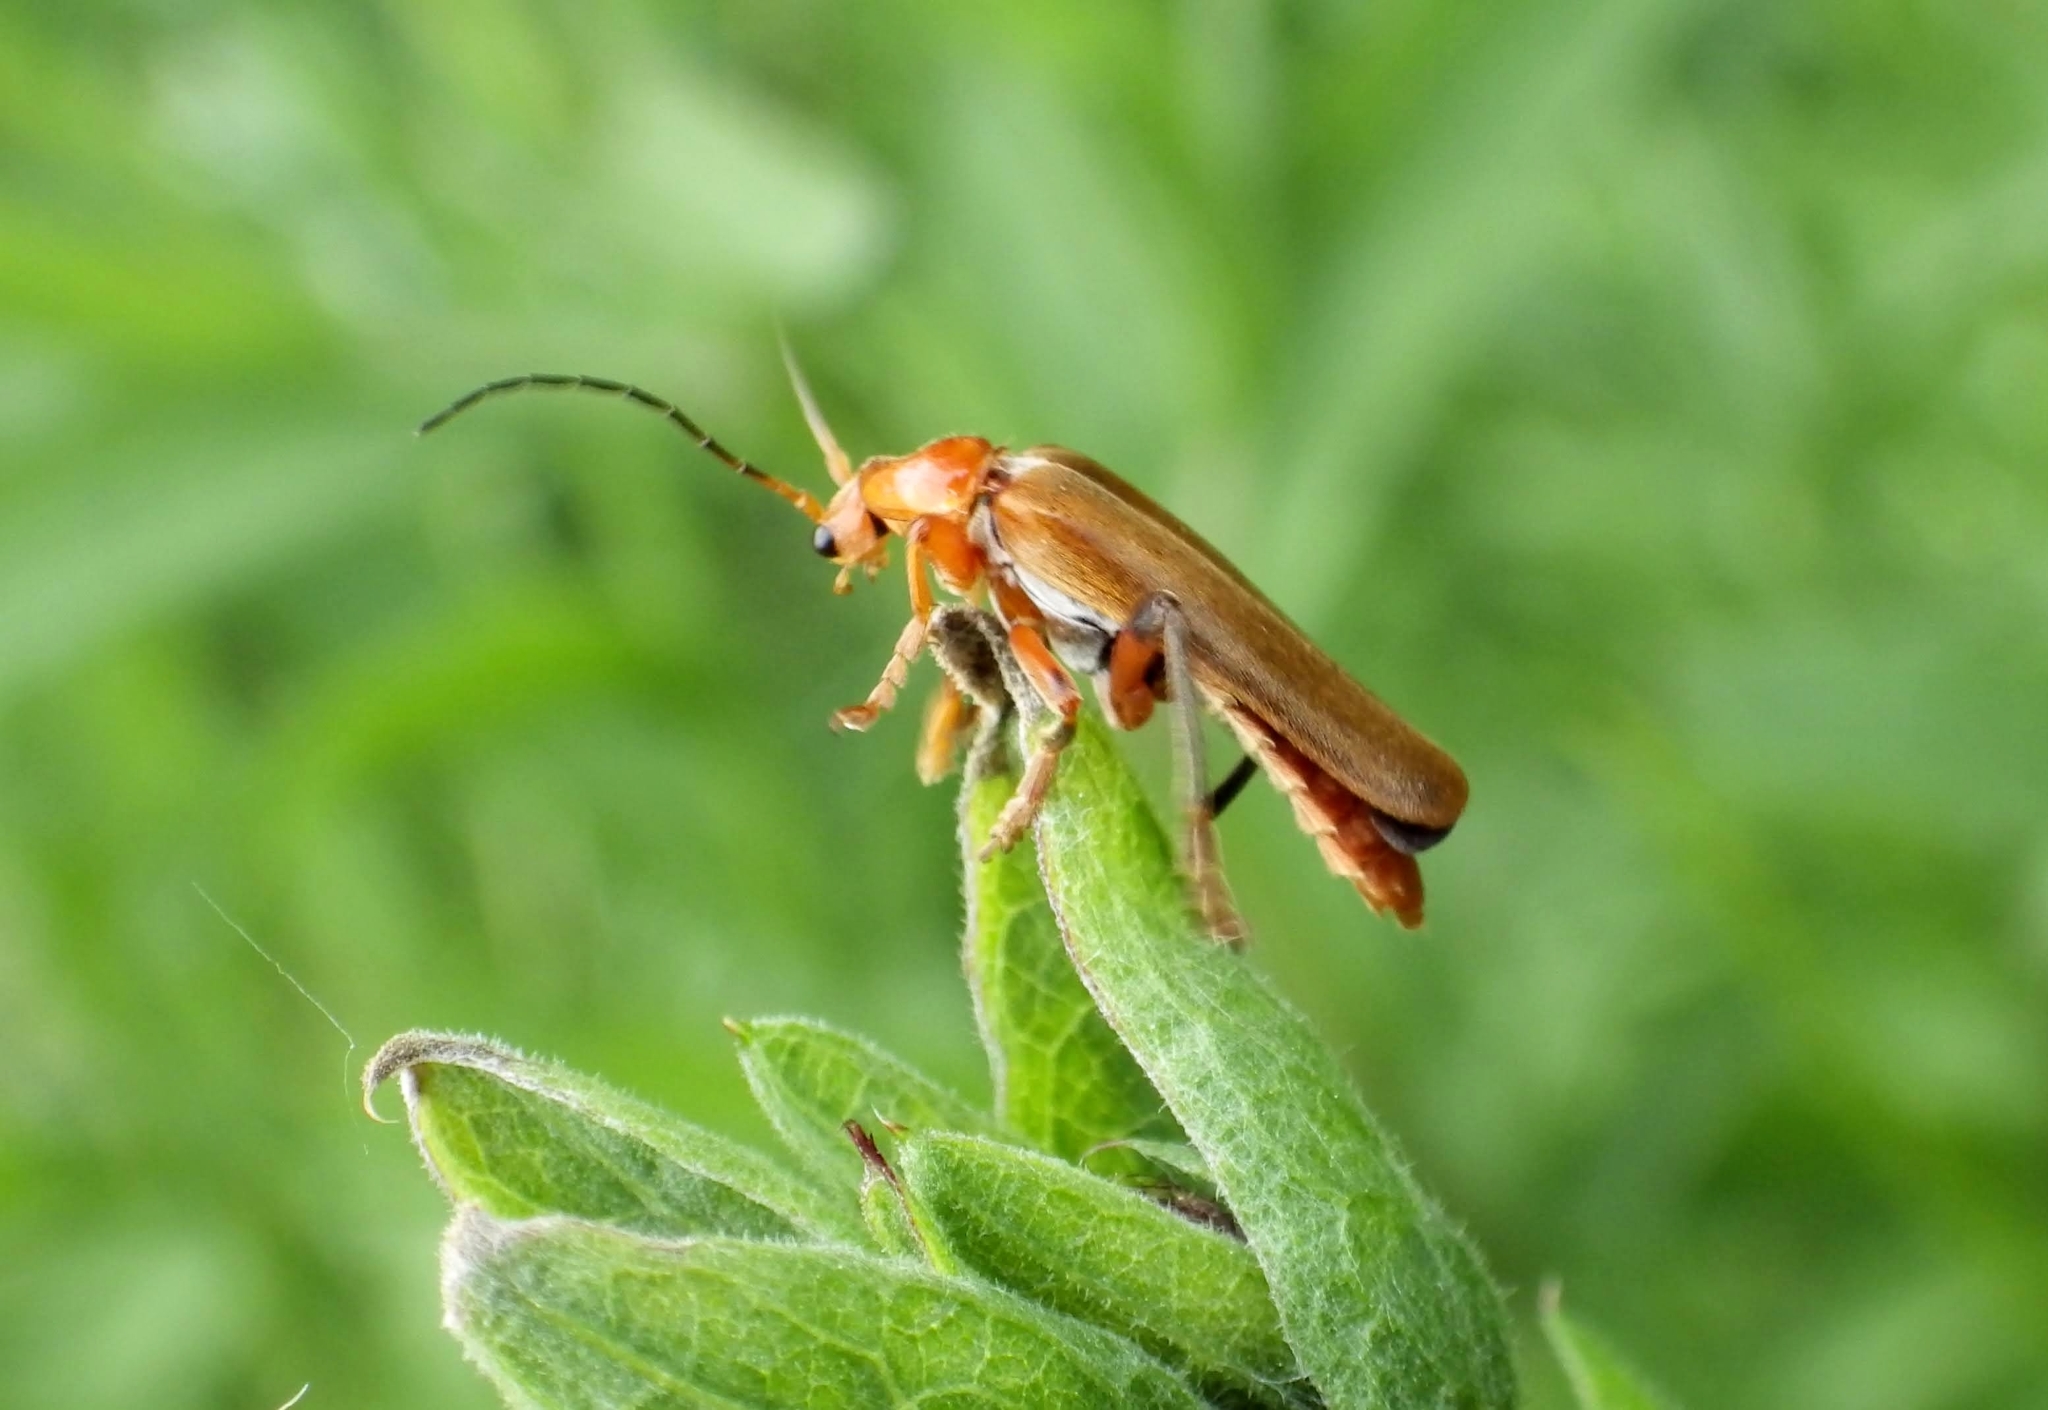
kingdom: Animalia
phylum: Arthropoda
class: Insecta
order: Coleoptera
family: Cantharidae
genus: Cantharis
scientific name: Cantharis livida
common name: Livid soldier beetle
